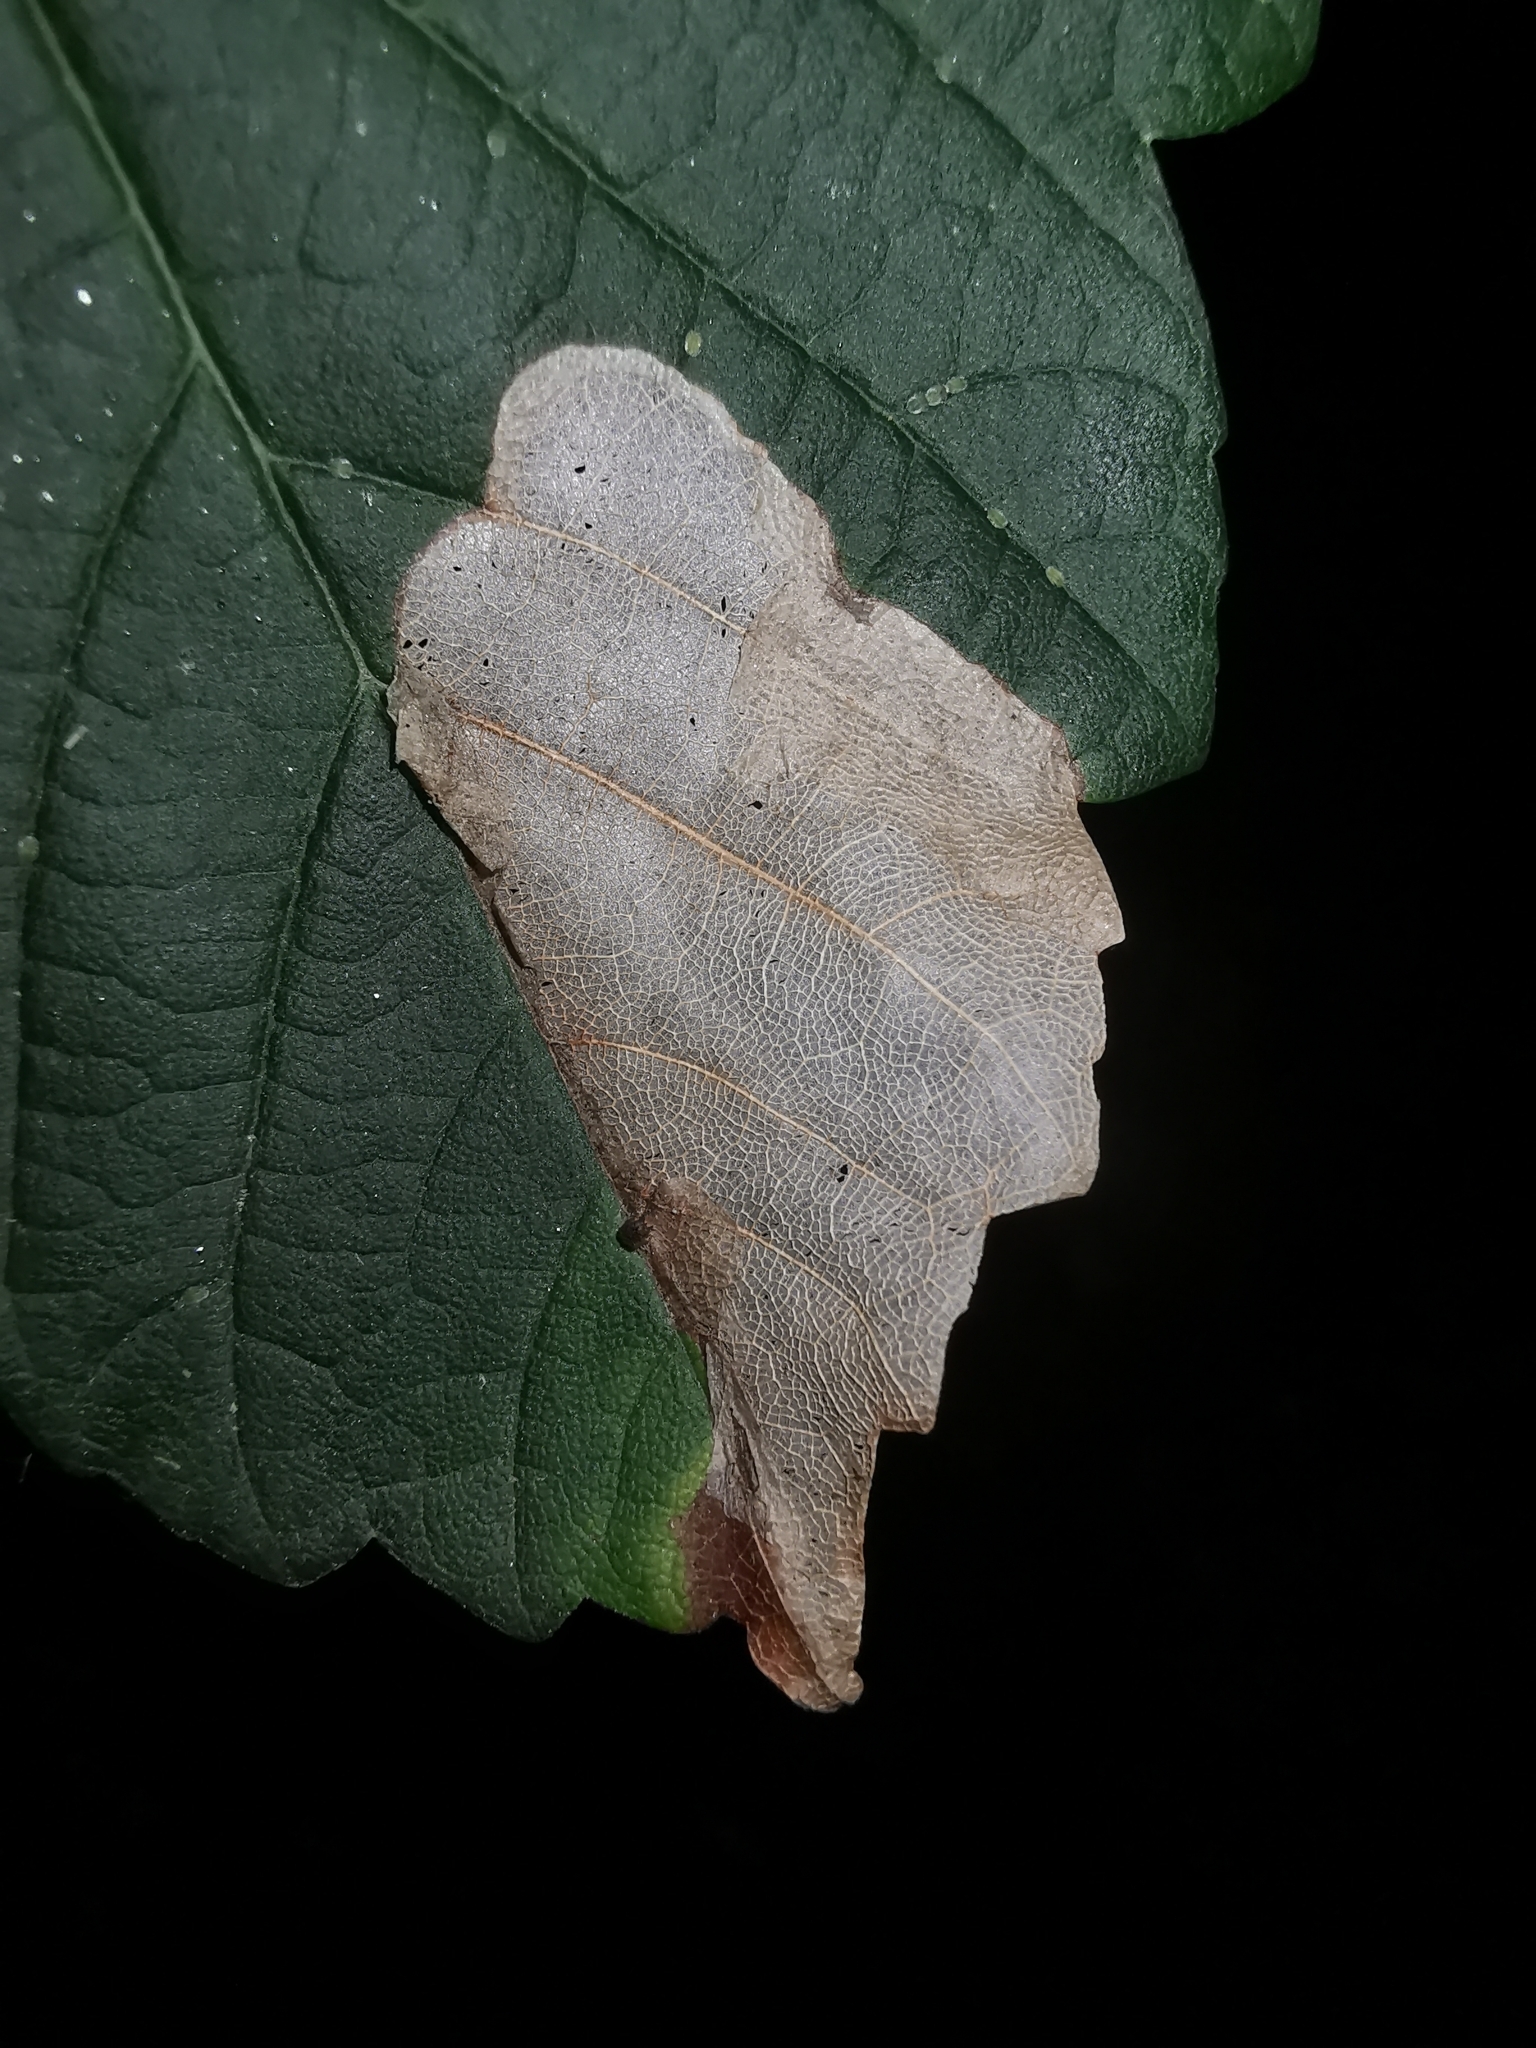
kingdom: Animalia
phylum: Arthropoda
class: Insecta
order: Hymenoptera
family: Tenthredinidae
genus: Heterarthrus
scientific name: Heterarthrus fiora
